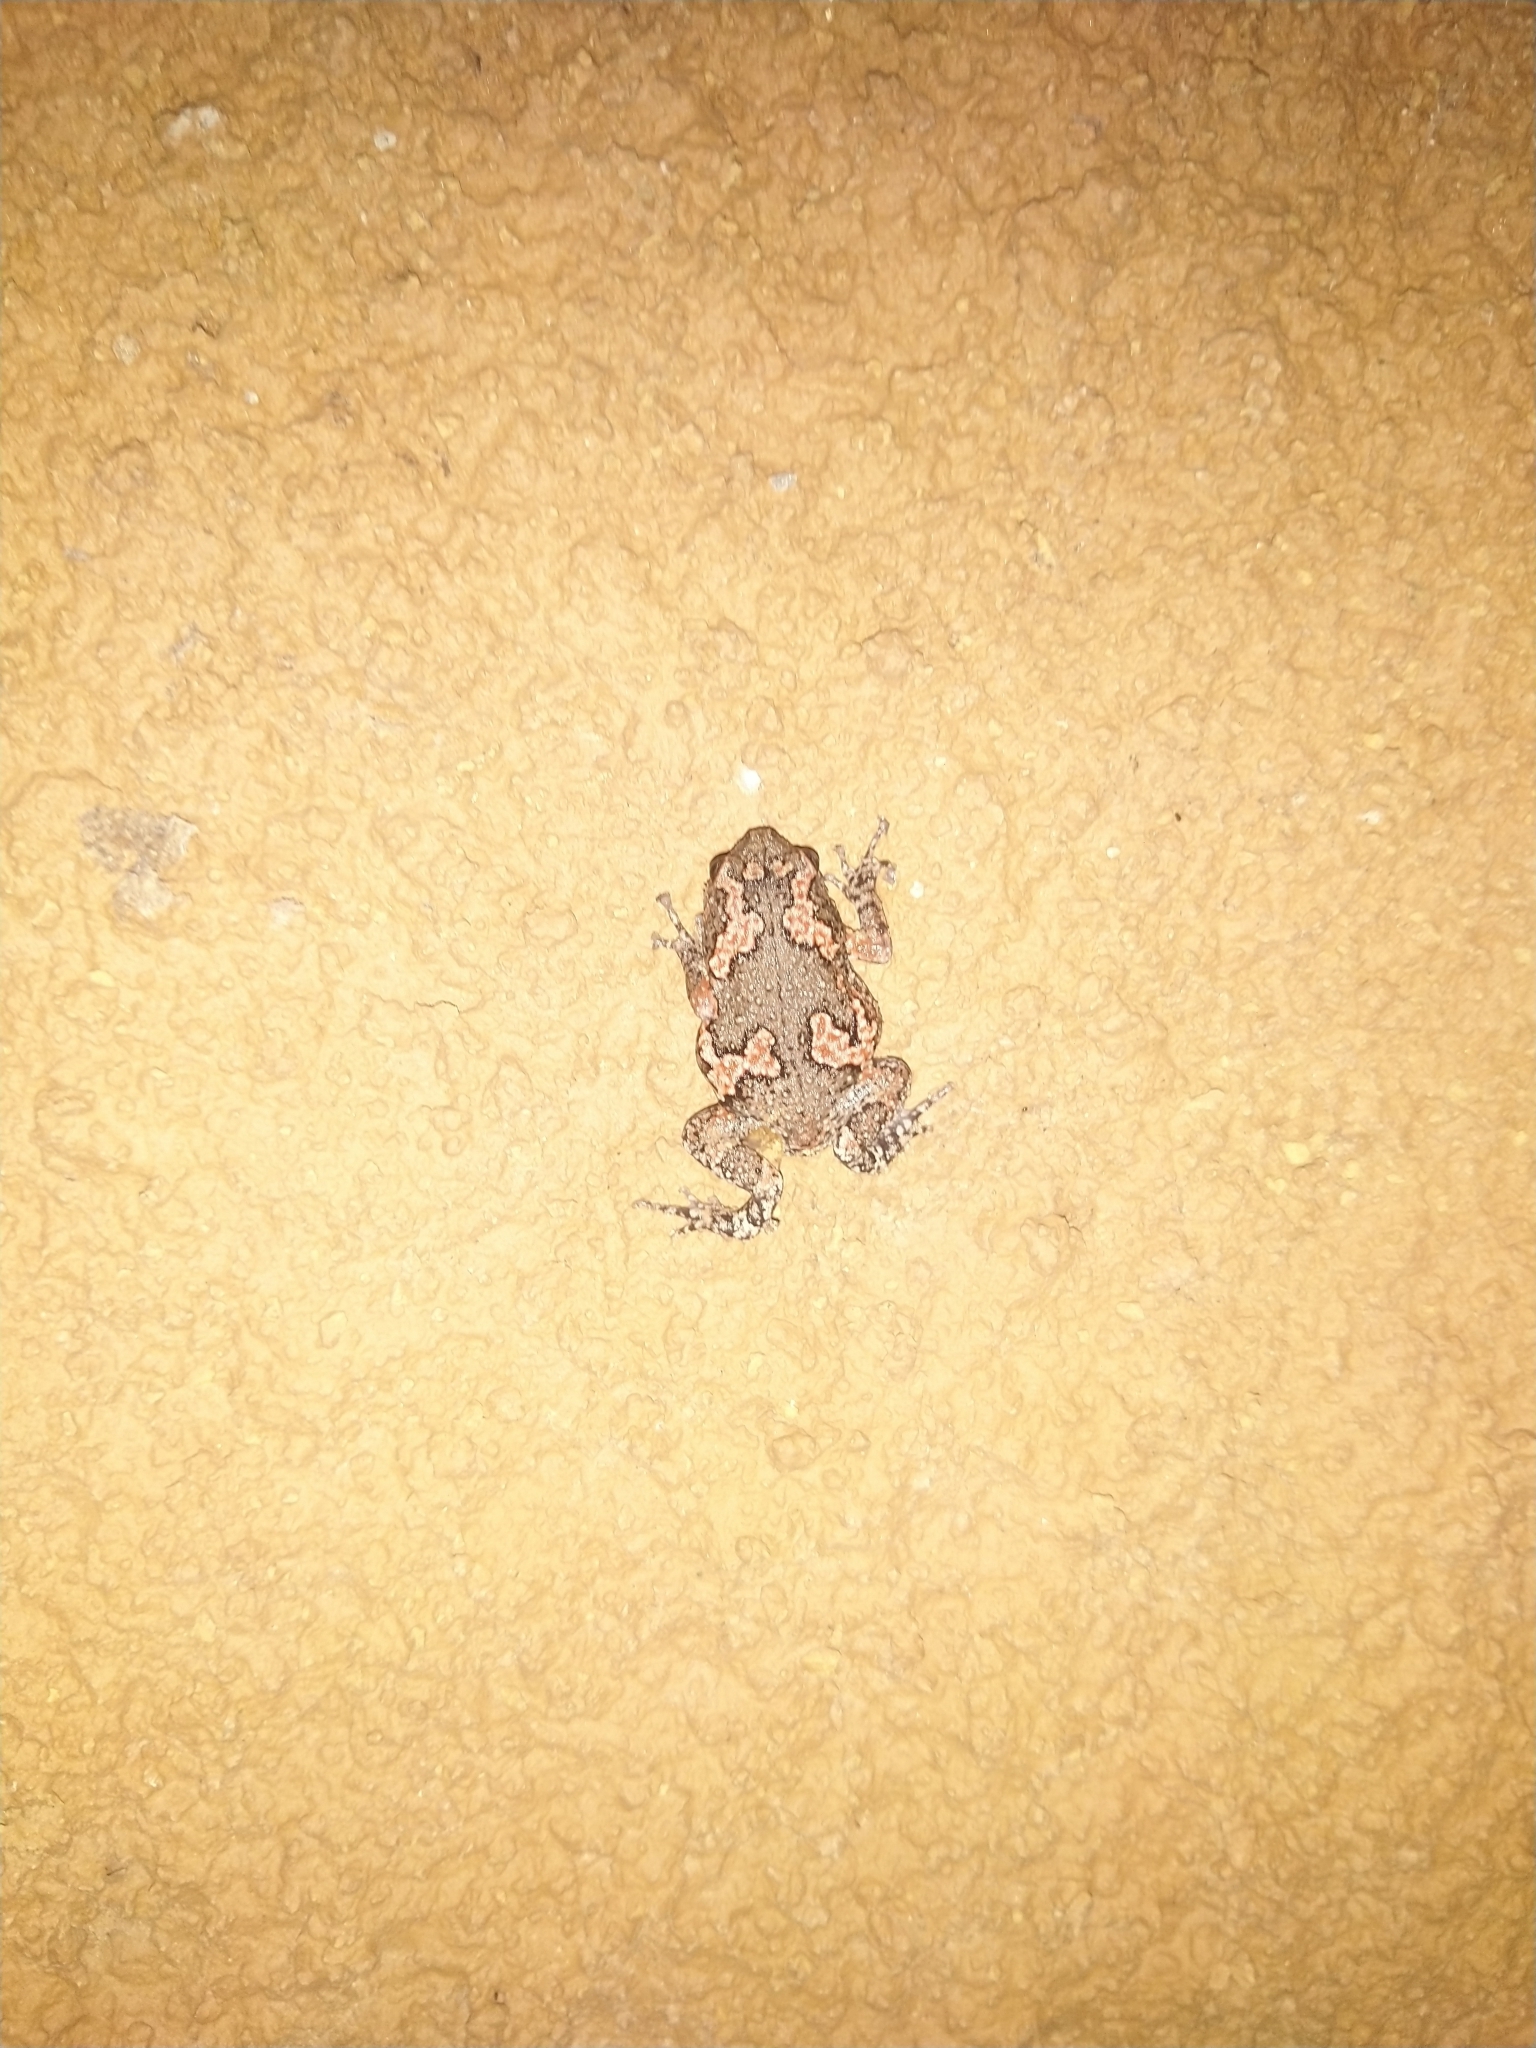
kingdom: Animalia
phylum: Chordata
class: Amphibia
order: Anura
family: Microhylidae
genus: Uperodon
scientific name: Uperodon taprobanicus
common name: Ceylon kaloula
